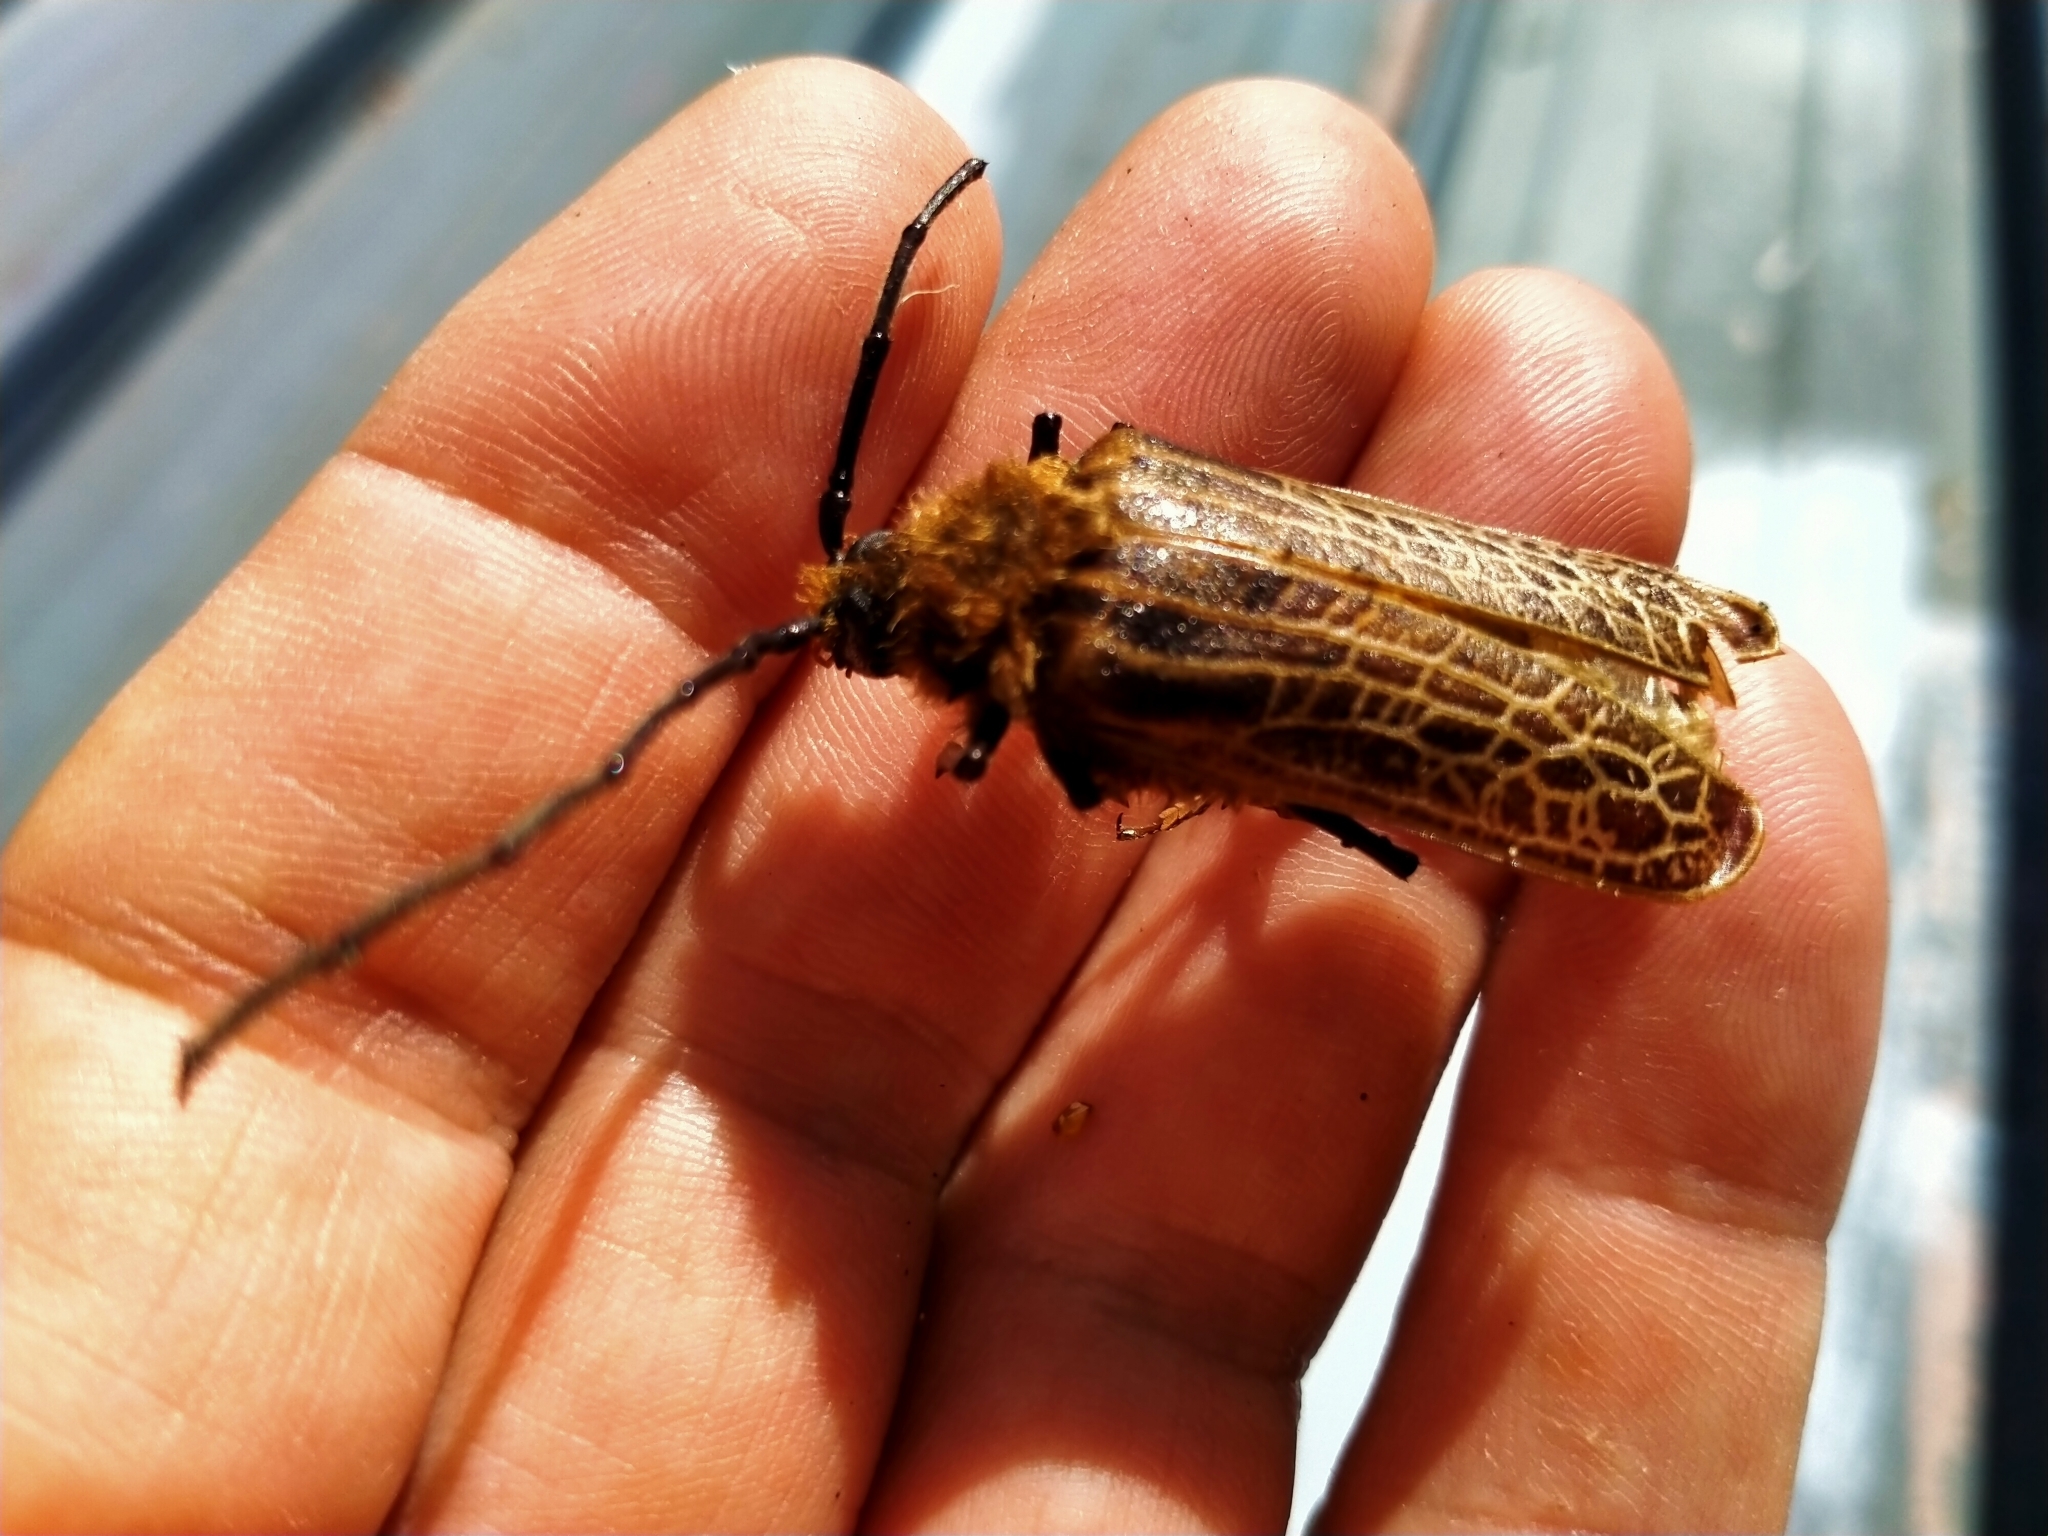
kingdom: Animalia
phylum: Arthropoda
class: Insecta
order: Coleoptera
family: Cerambycidae
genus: Prionoplus
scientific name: Prionoplus reticularis
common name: Huhu beetle
